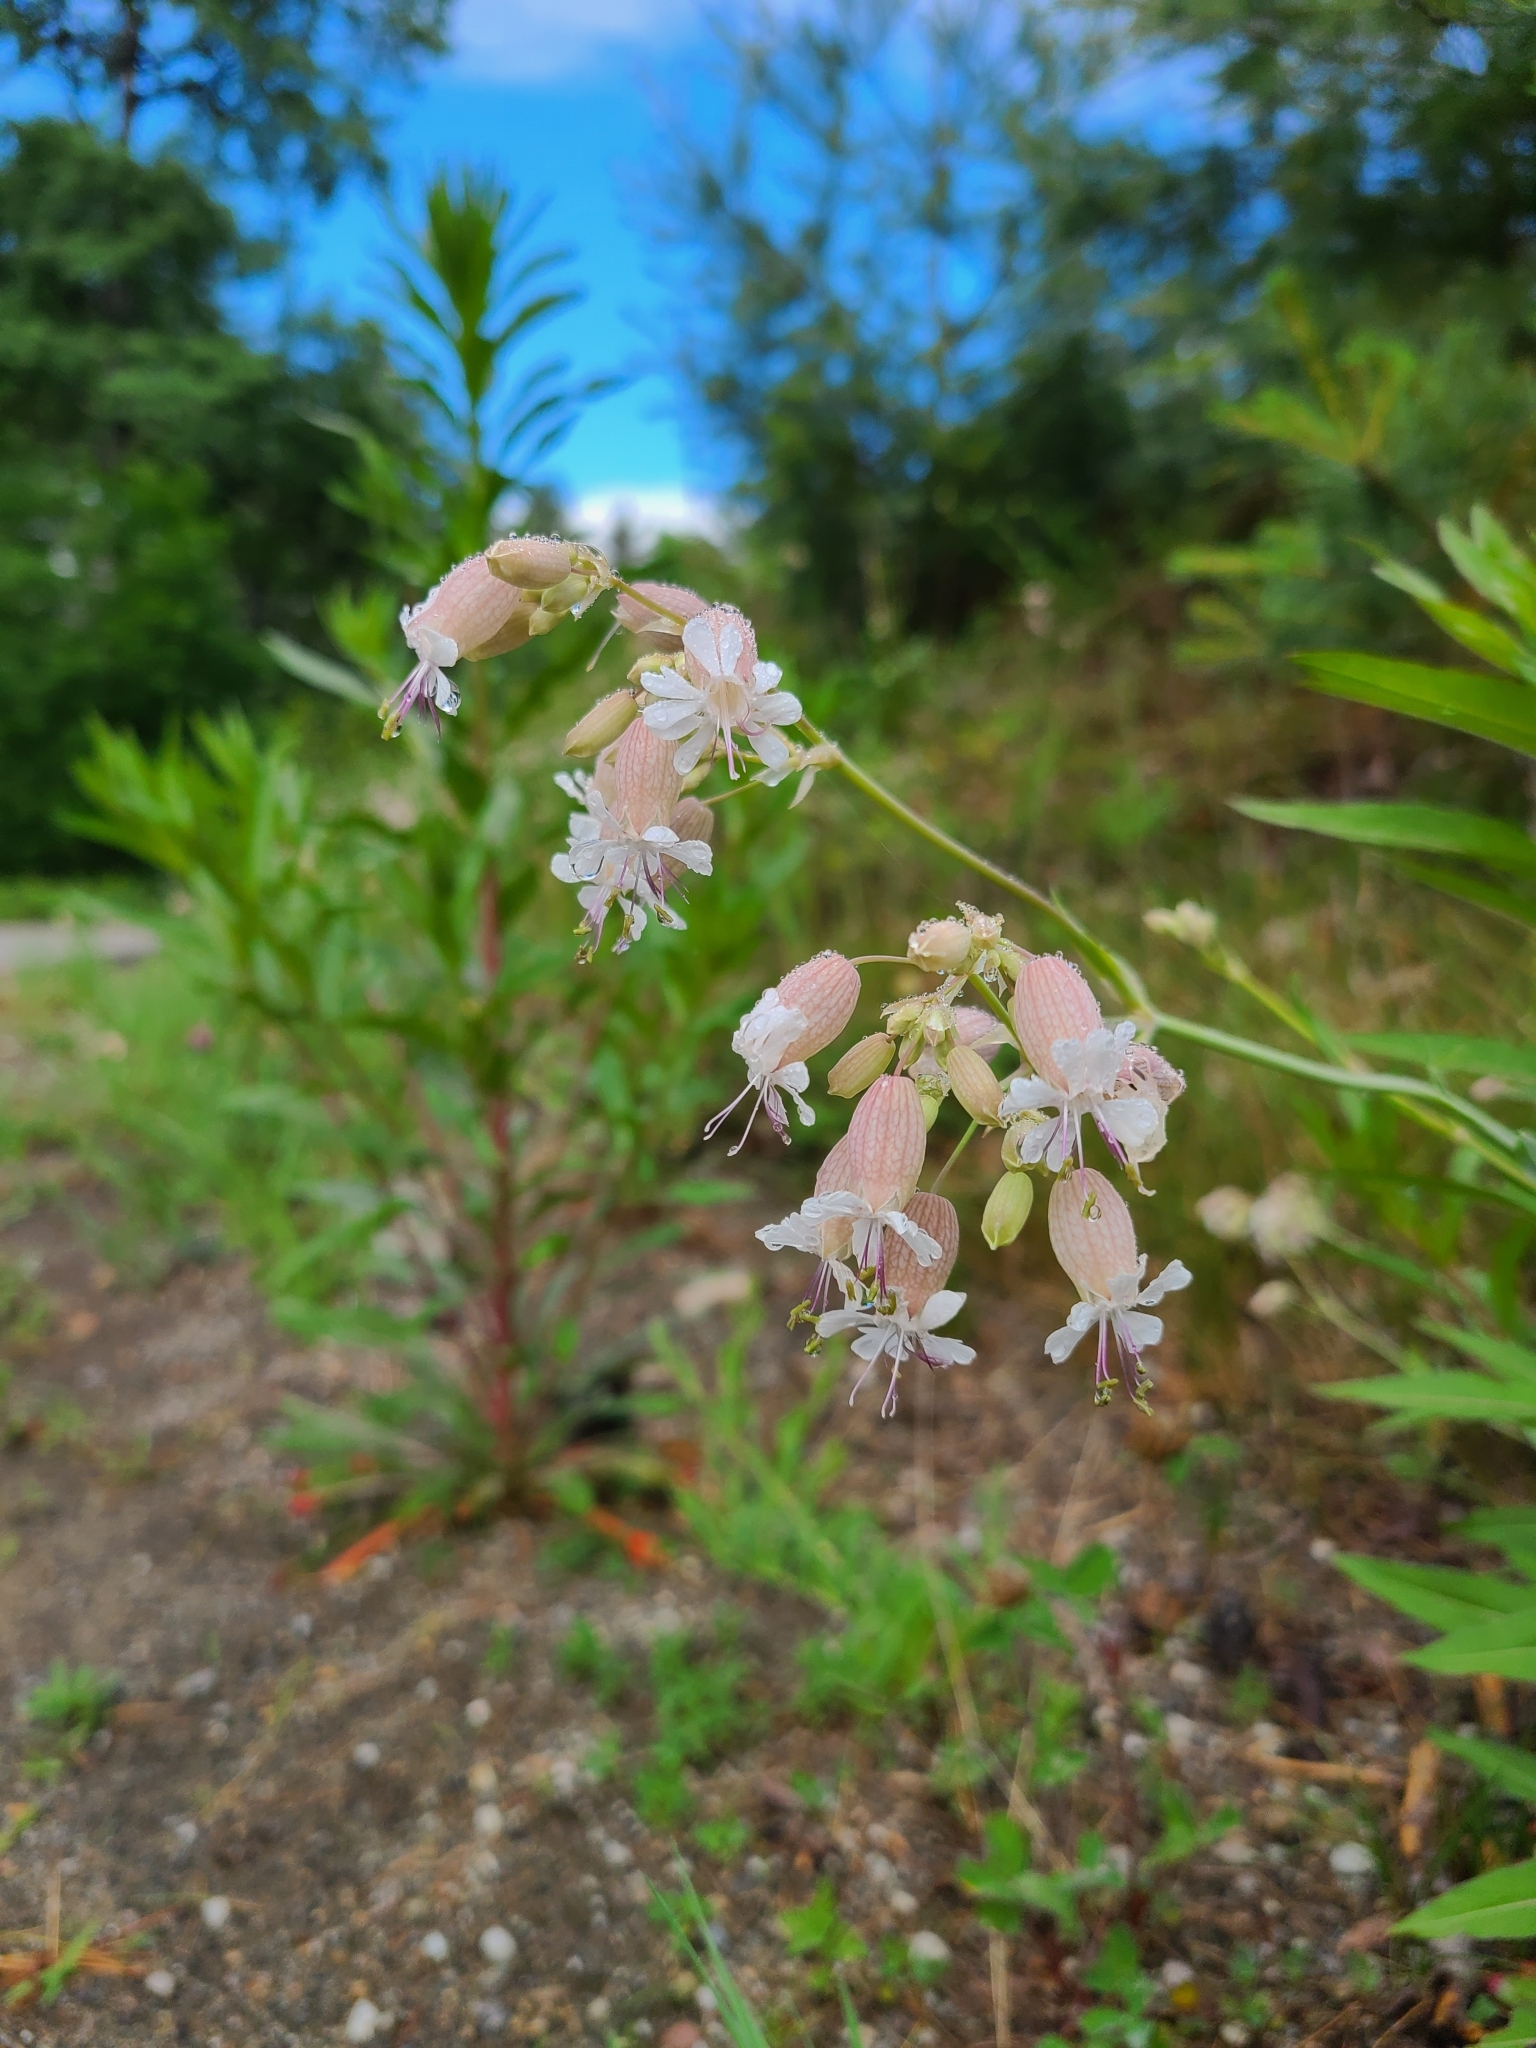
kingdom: Plantae
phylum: Tracheophyta
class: Magnoliopsida
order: Caryophyllales
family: Caryophyllaceae
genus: Silene
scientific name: Silene vulgaris
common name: Bladder campion
